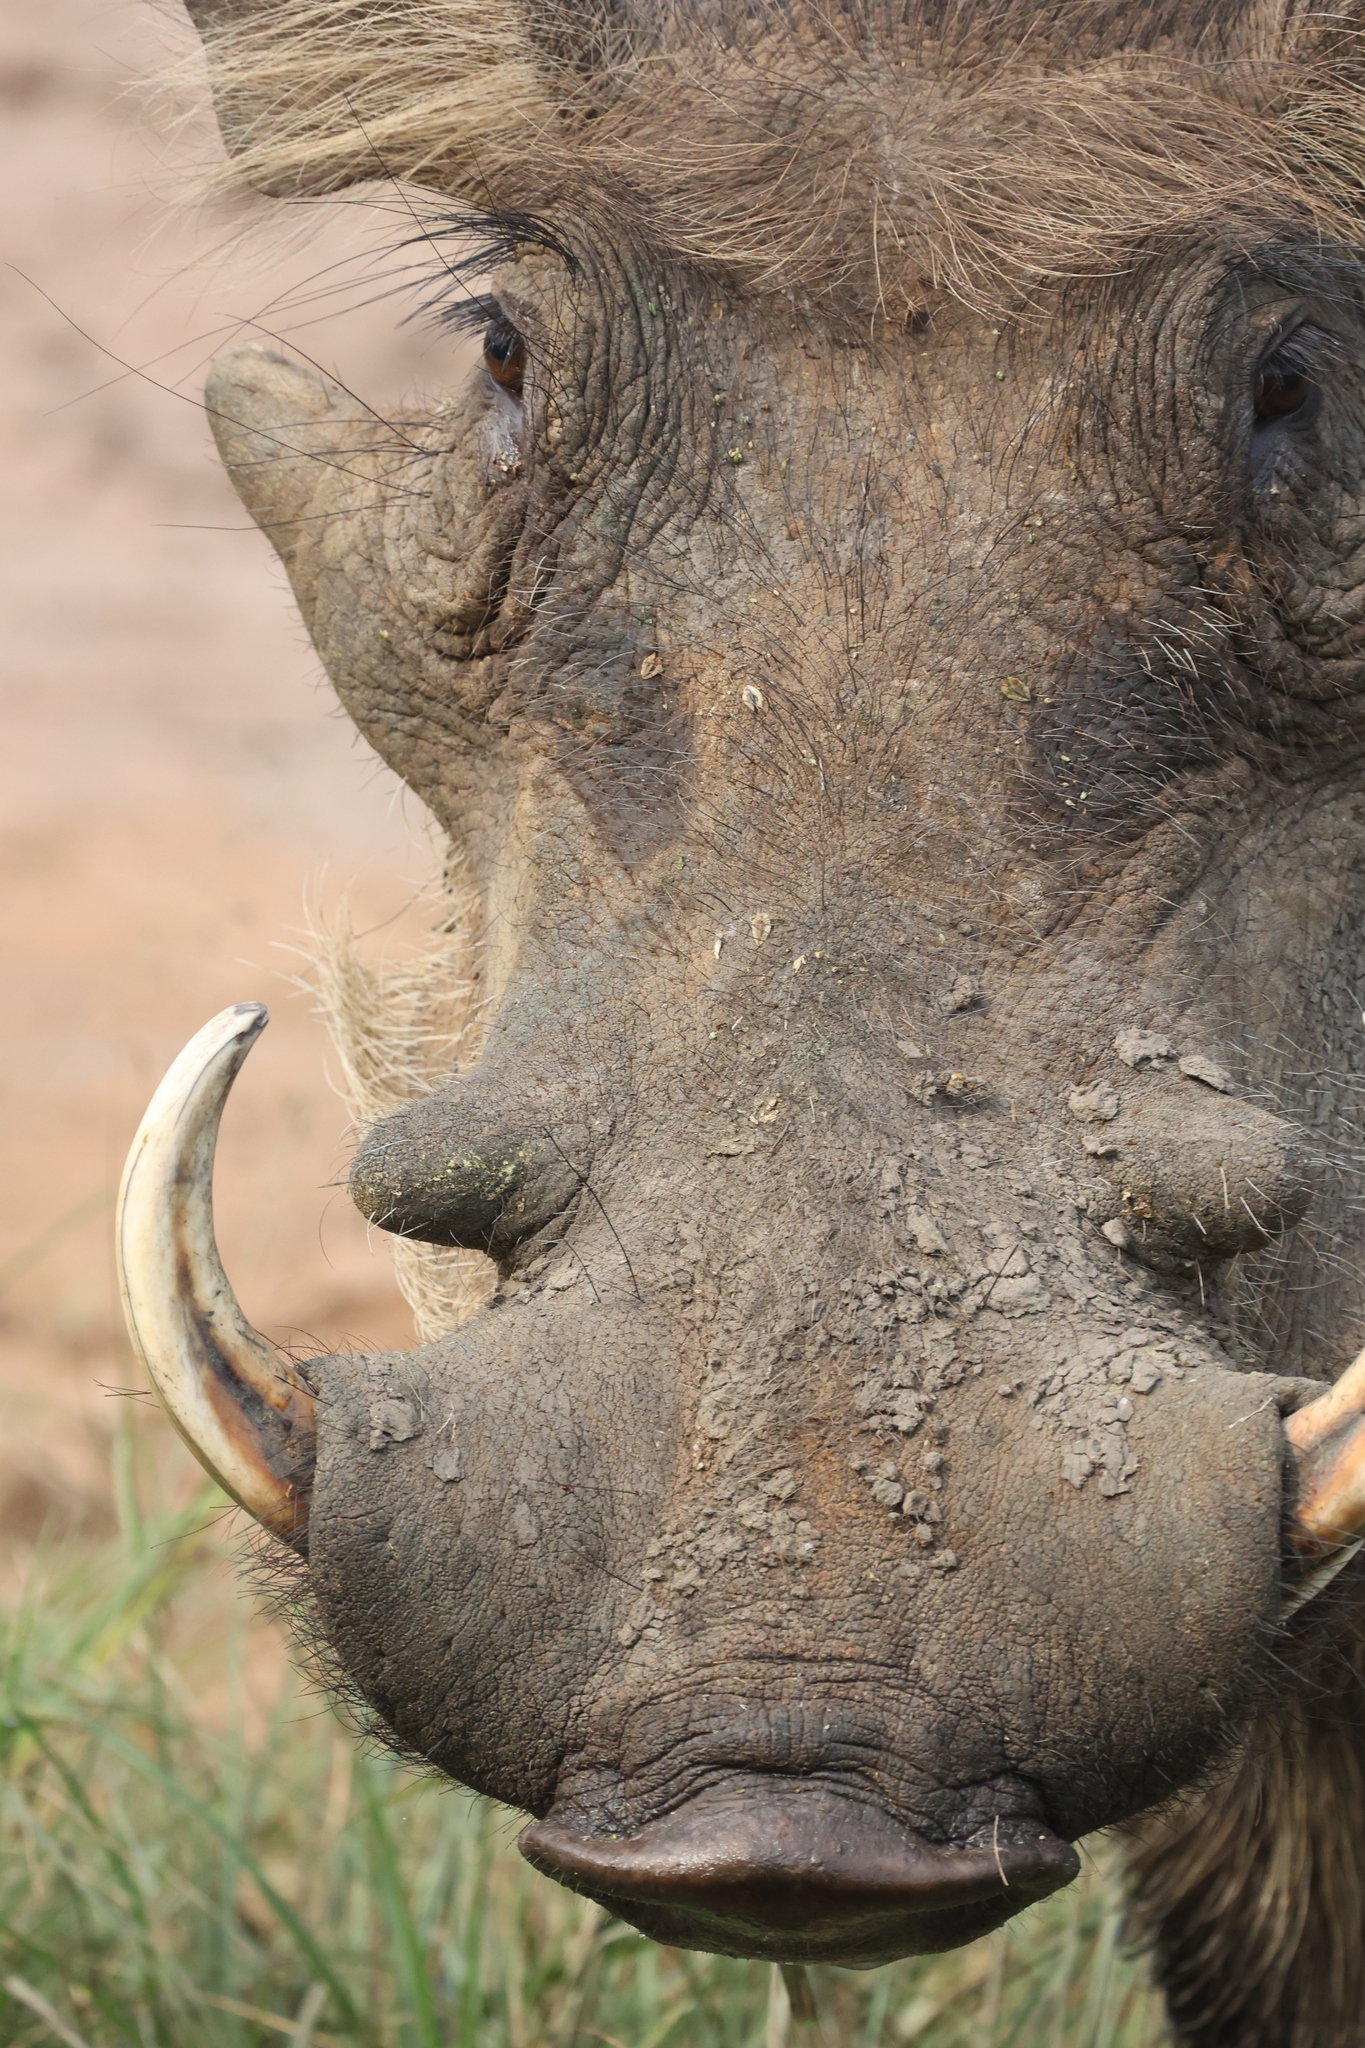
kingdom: Animalia
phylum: Chordata
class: Mammalia
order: Artiodactyla
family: Suidae
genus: Phacochoerus
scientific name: Phacochoerus africanus
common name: Common warthog
